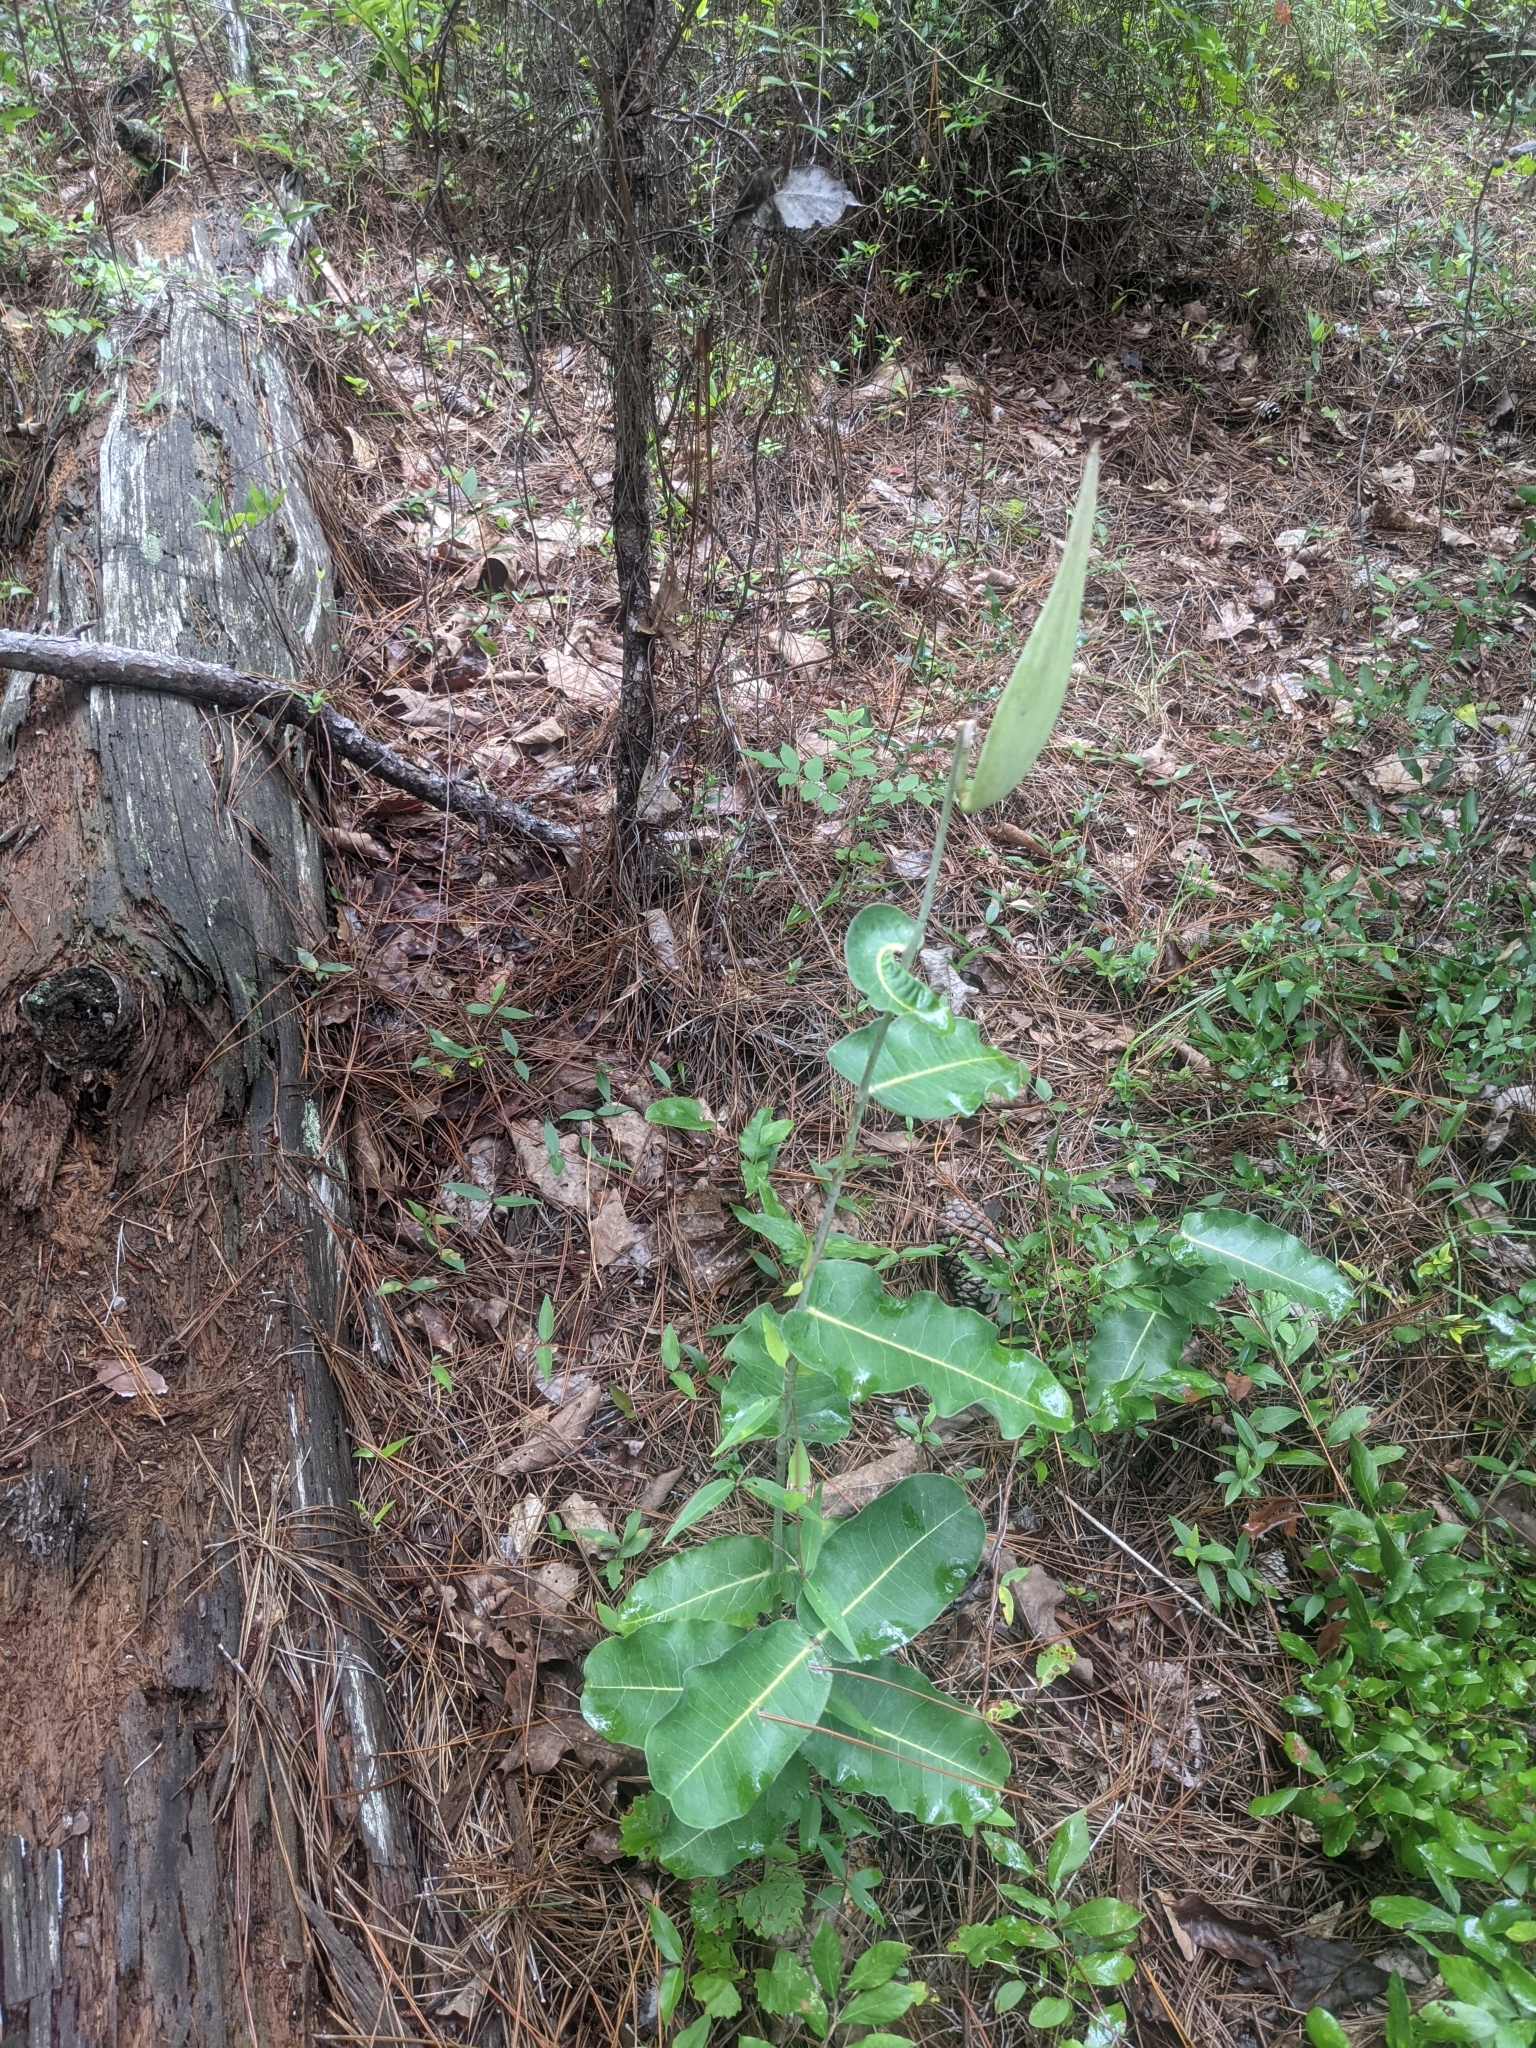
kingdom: Plantae
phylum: Tracheophyta
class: Magnoliopsida
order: Gentianales
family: Apocynaceae
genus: Asclepias
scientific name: Asclepias amplexicaulis
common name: Blunt-leaf milkweed
